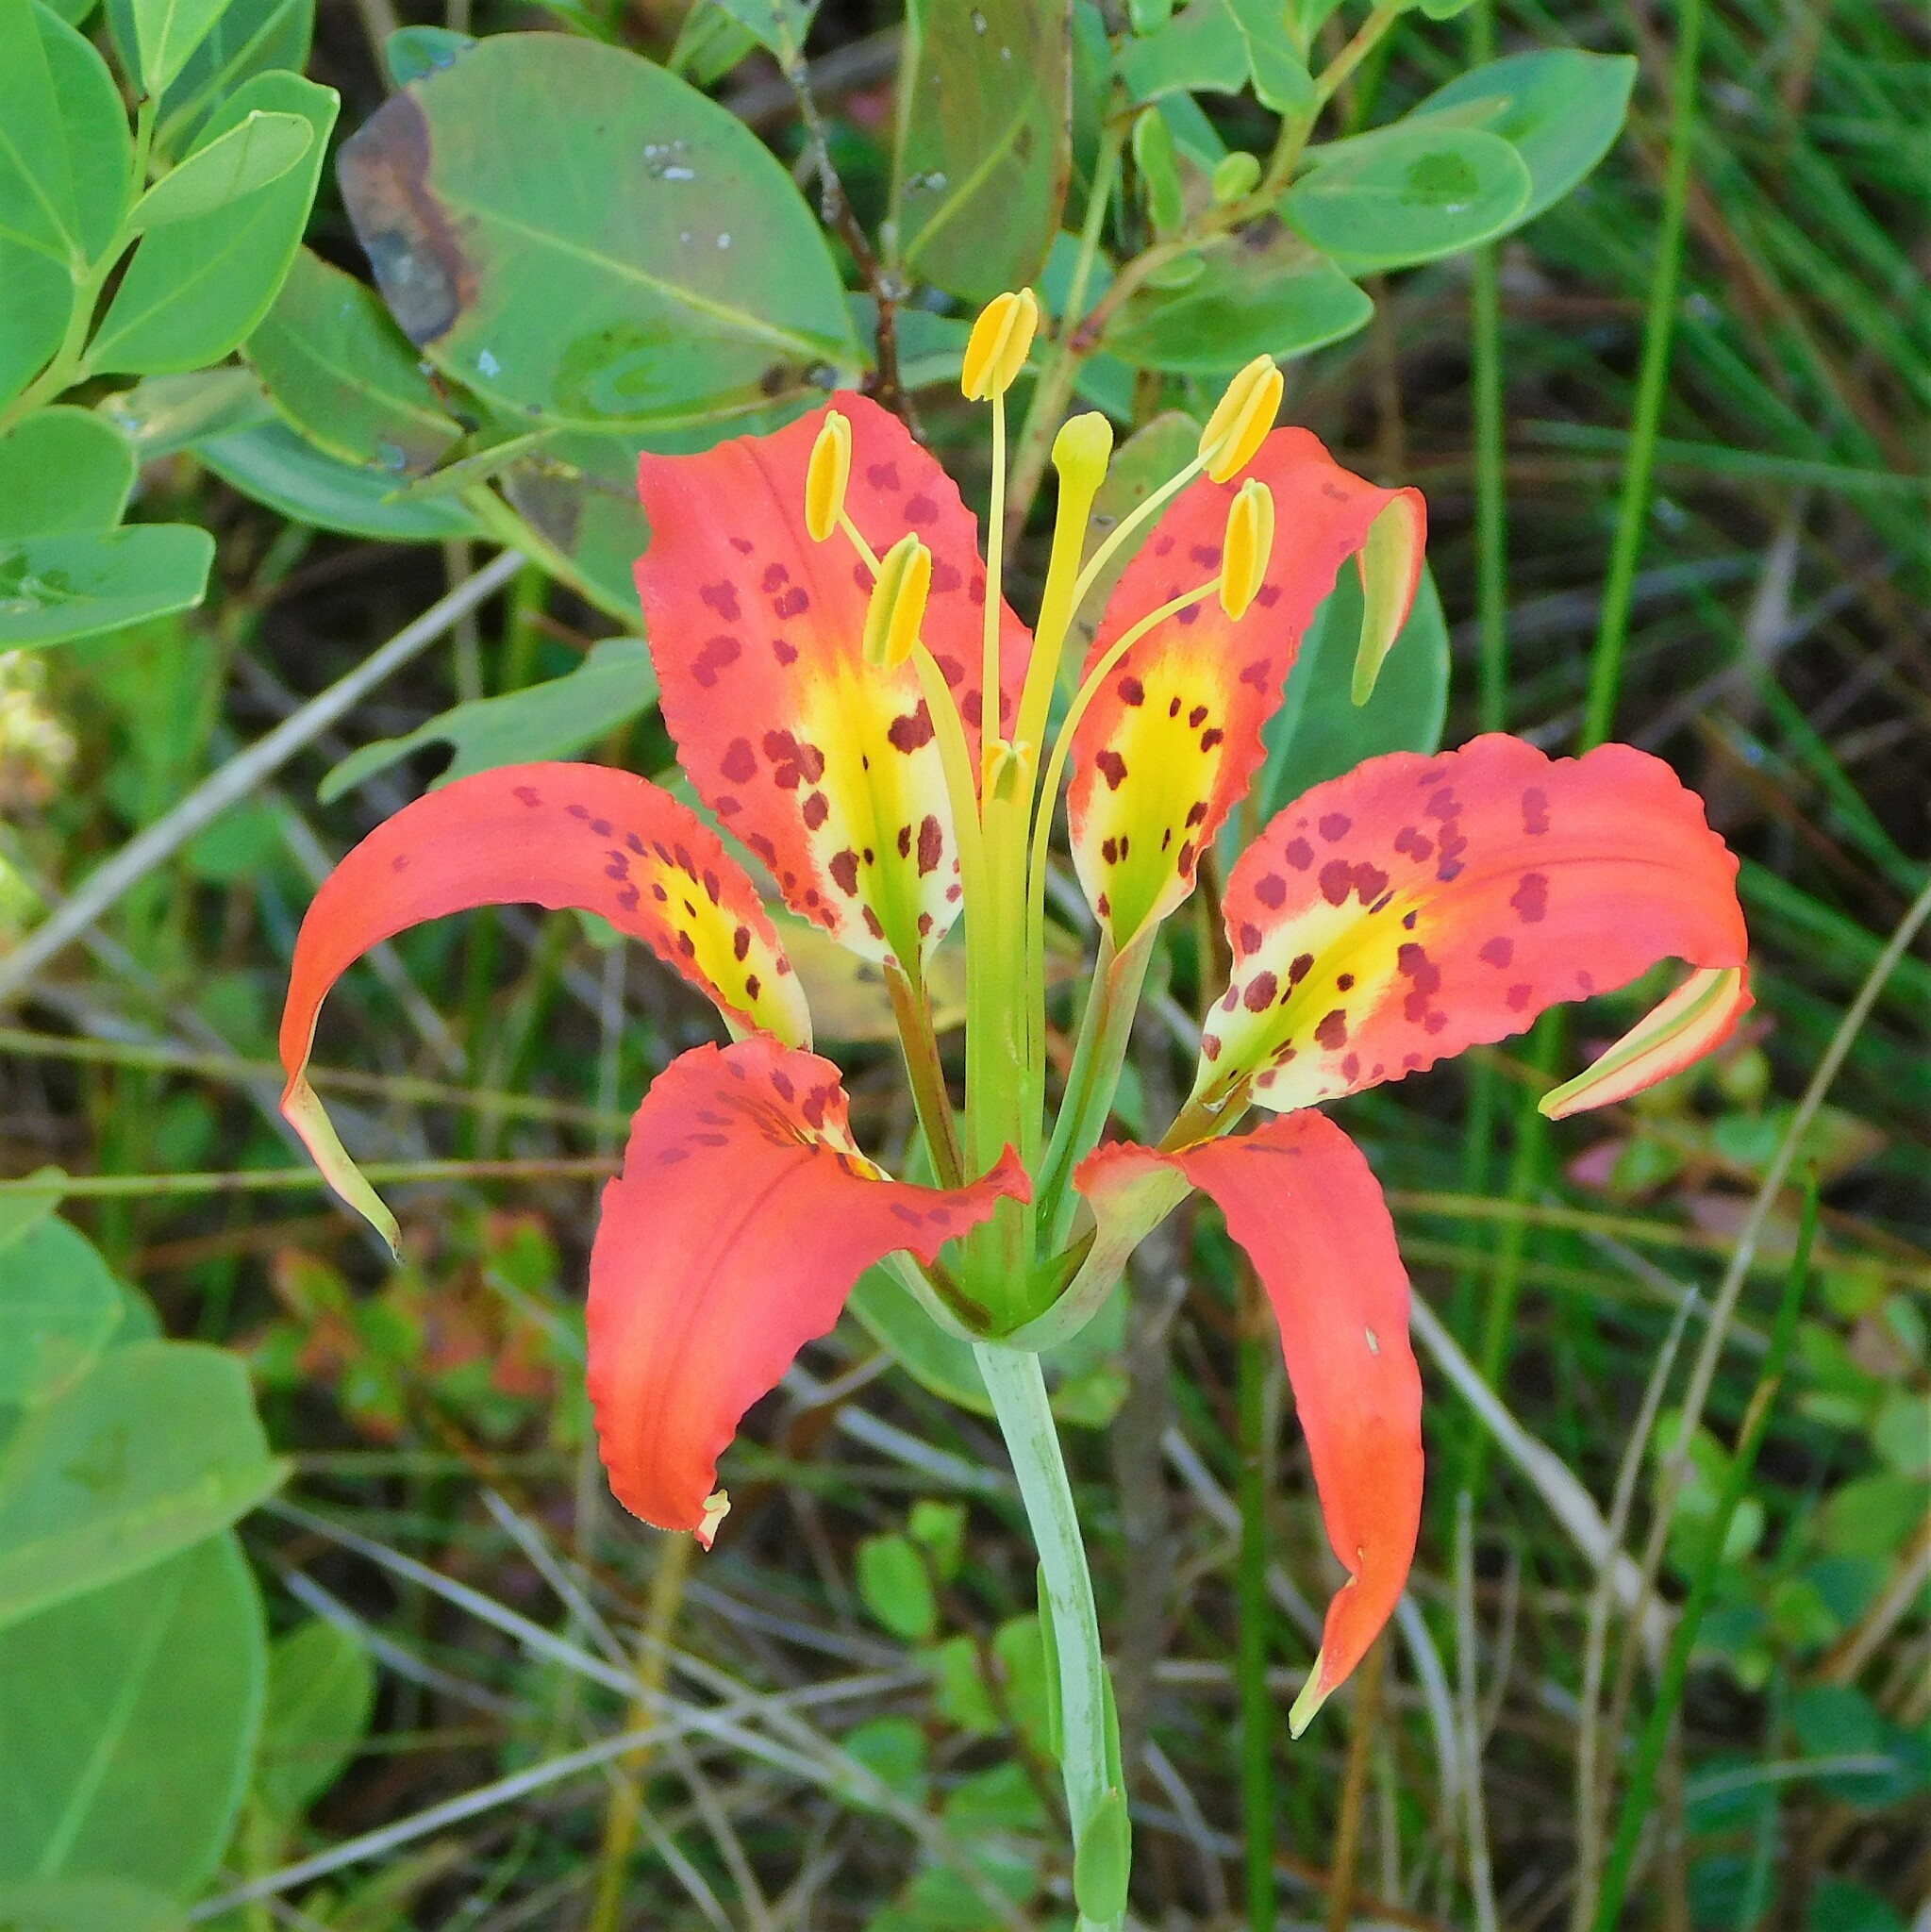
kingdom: Plantae
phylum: Tracheophyta
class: Liliopsida
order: Liliales
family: Liliaceae
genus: Lilium
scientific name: Lilium catesbaei
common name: Catesby's lily
